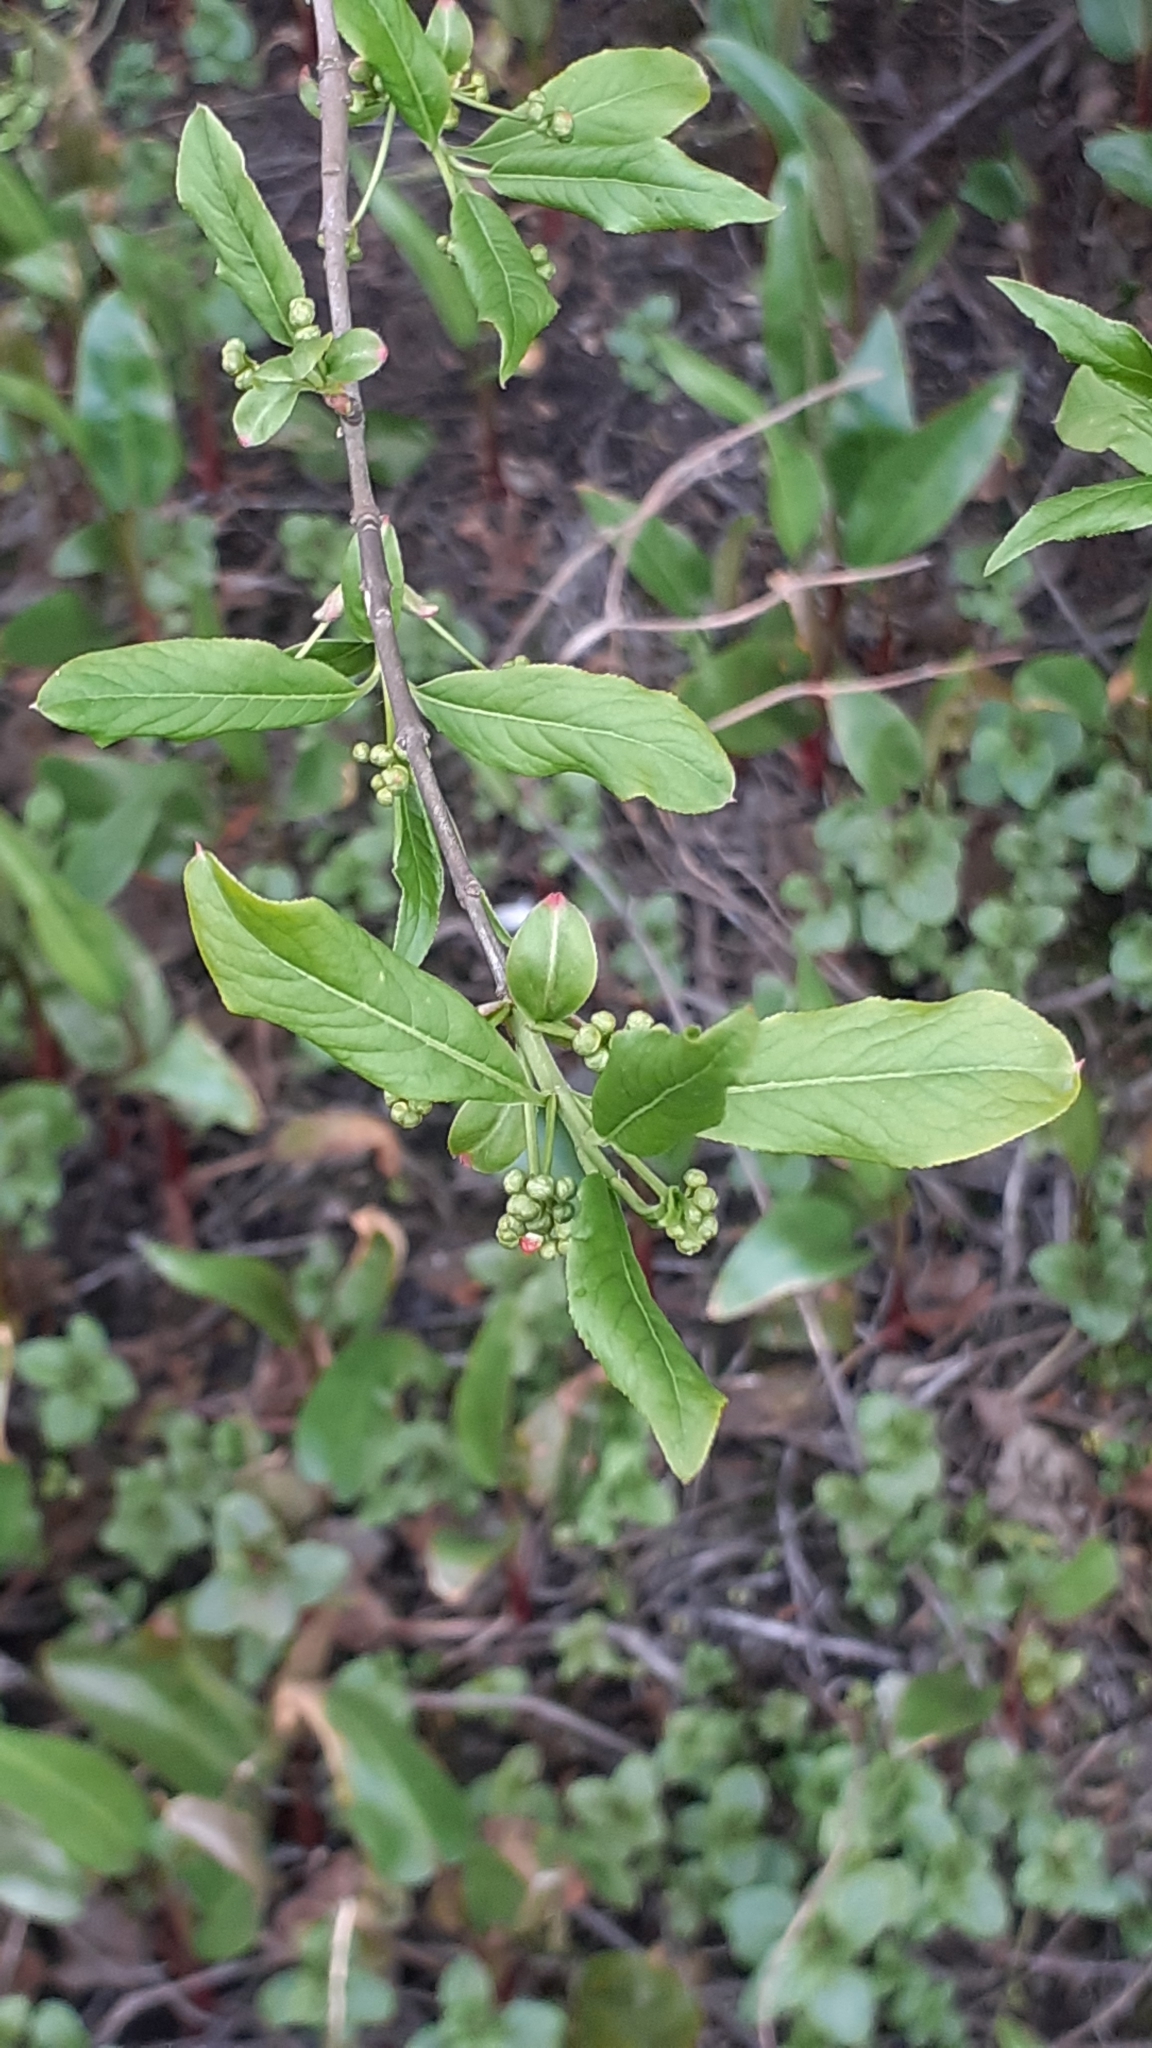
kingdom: Plantae
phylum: Tracheophyta
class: Magnoliopsida
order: Celastrales
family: Celastraceae
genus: Euonymus
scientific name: Euonymus europaeus
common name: Spindle
